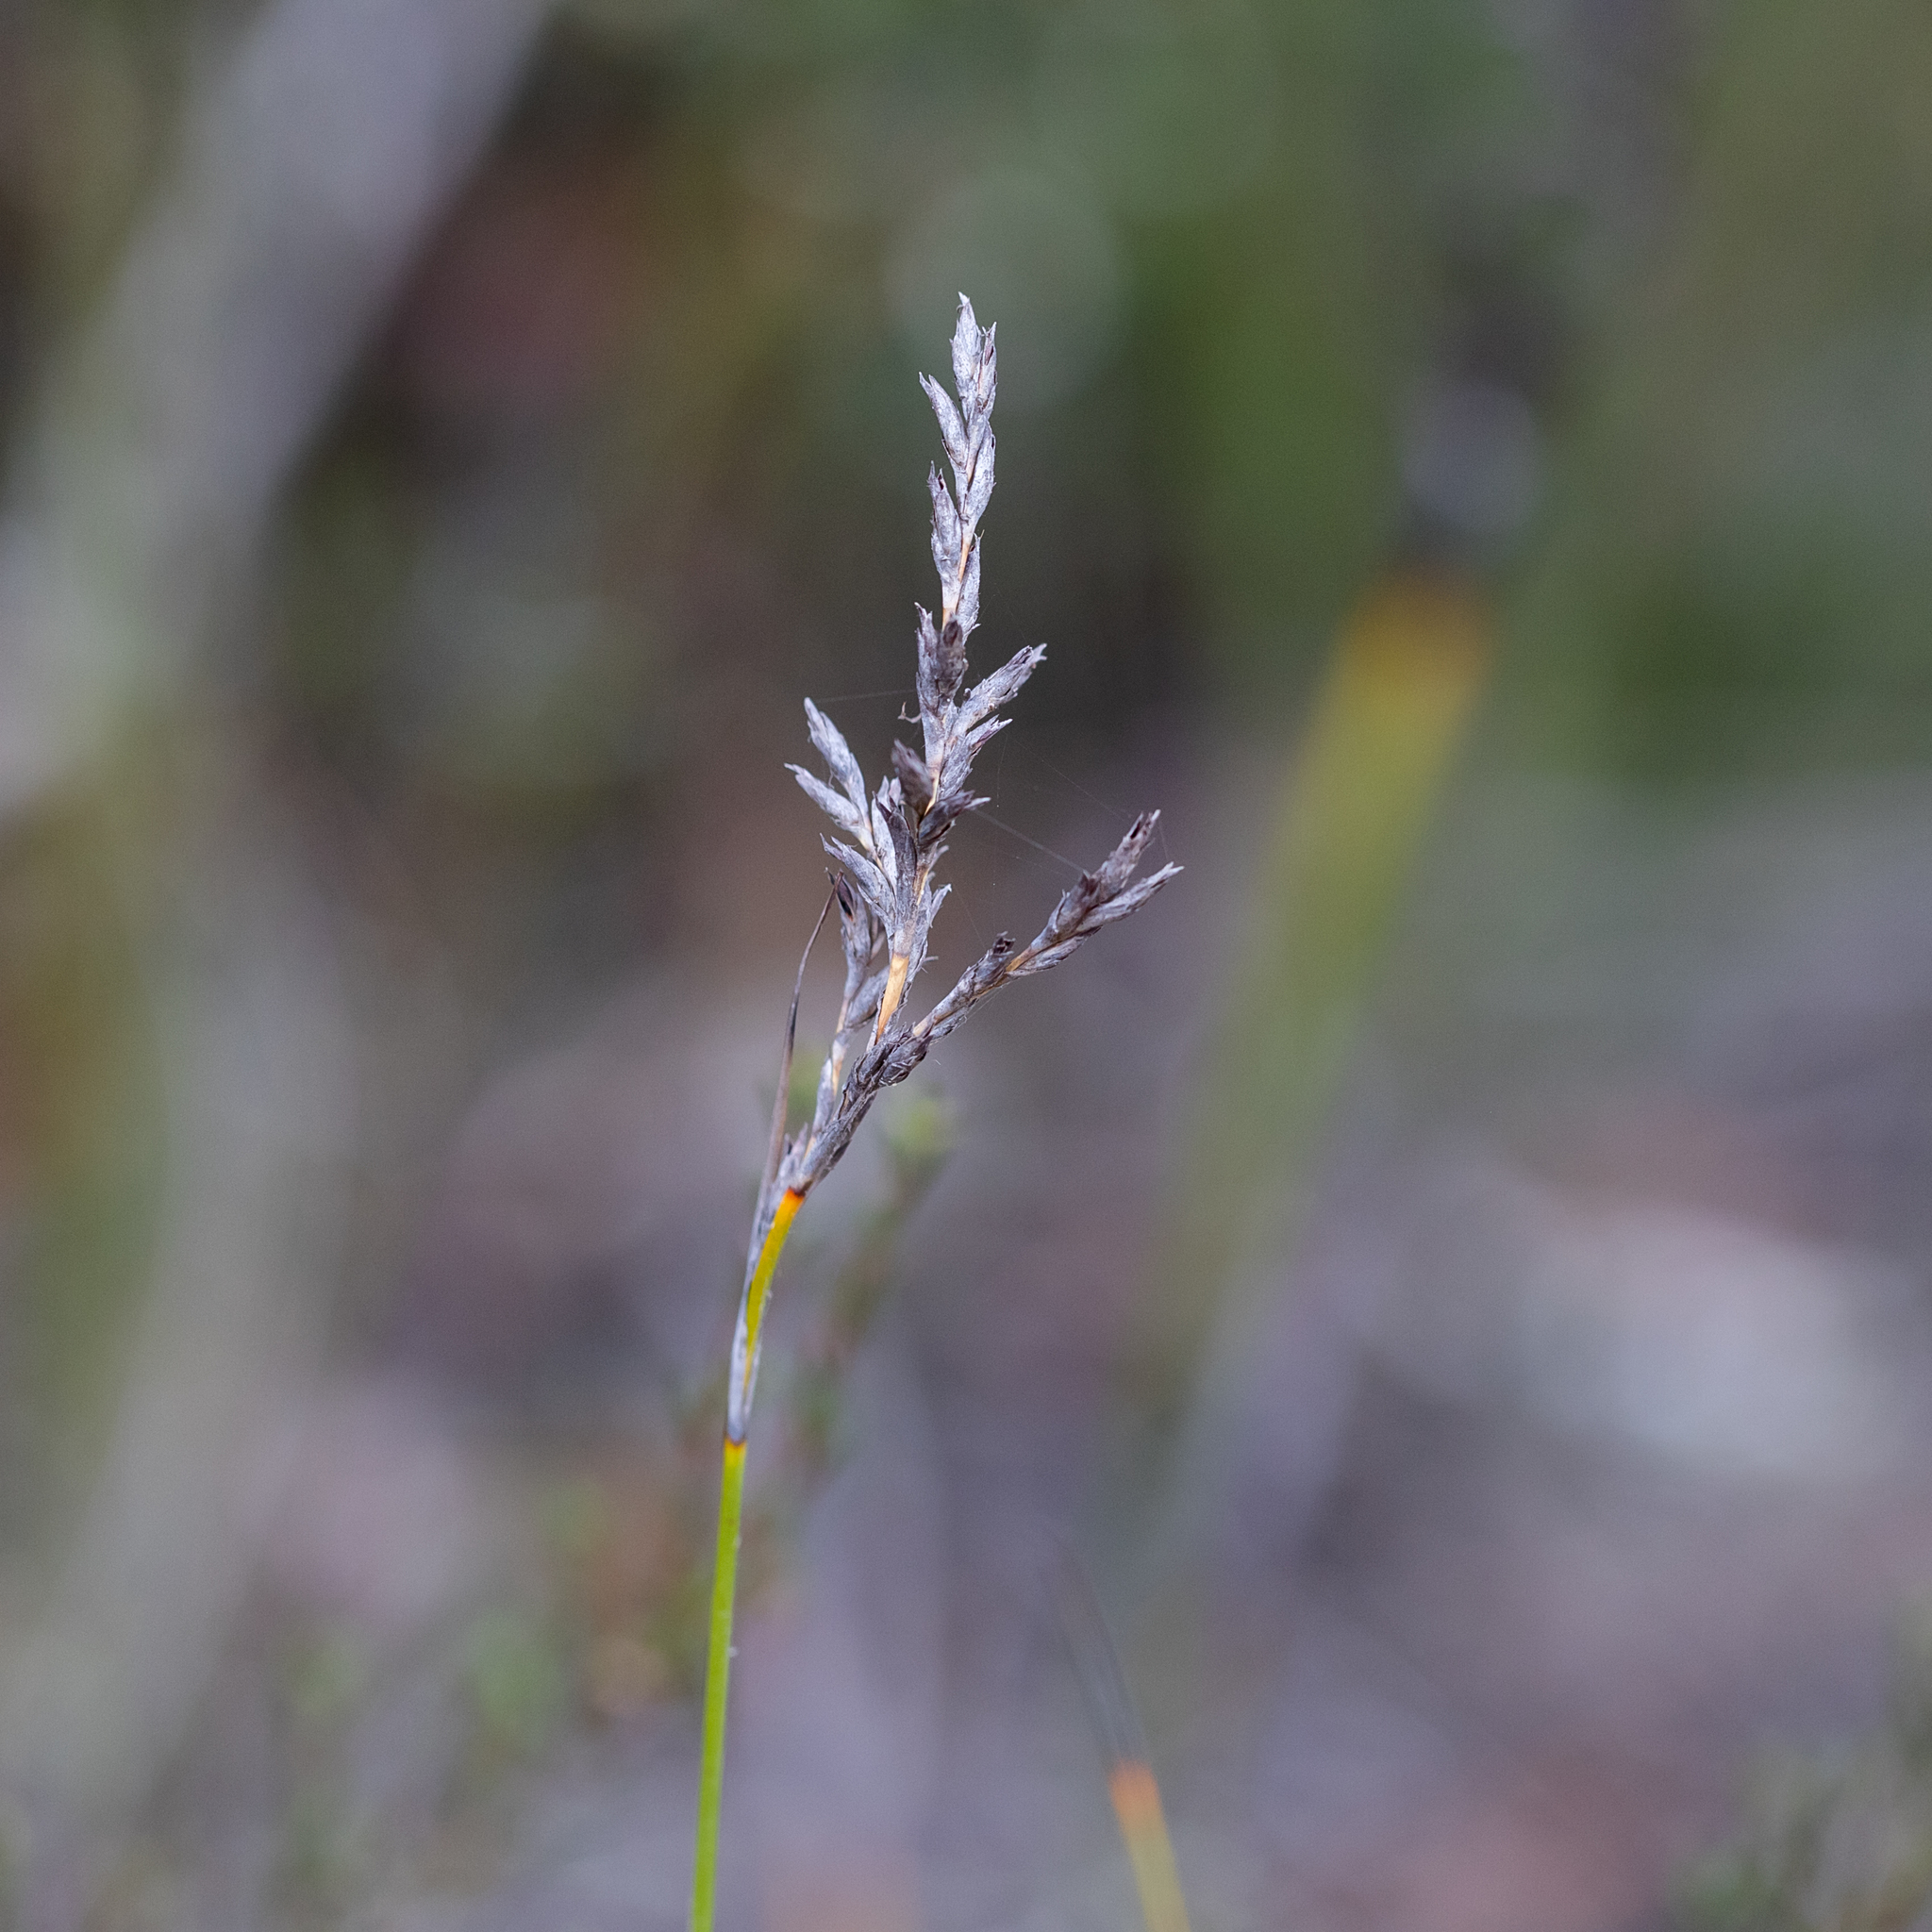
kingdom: Plantae
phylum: Tracheophyta
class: Liliopsida
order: Poales
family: Cyperaceae
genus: Lepidosperma
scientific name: Lepidosperma semiteres
